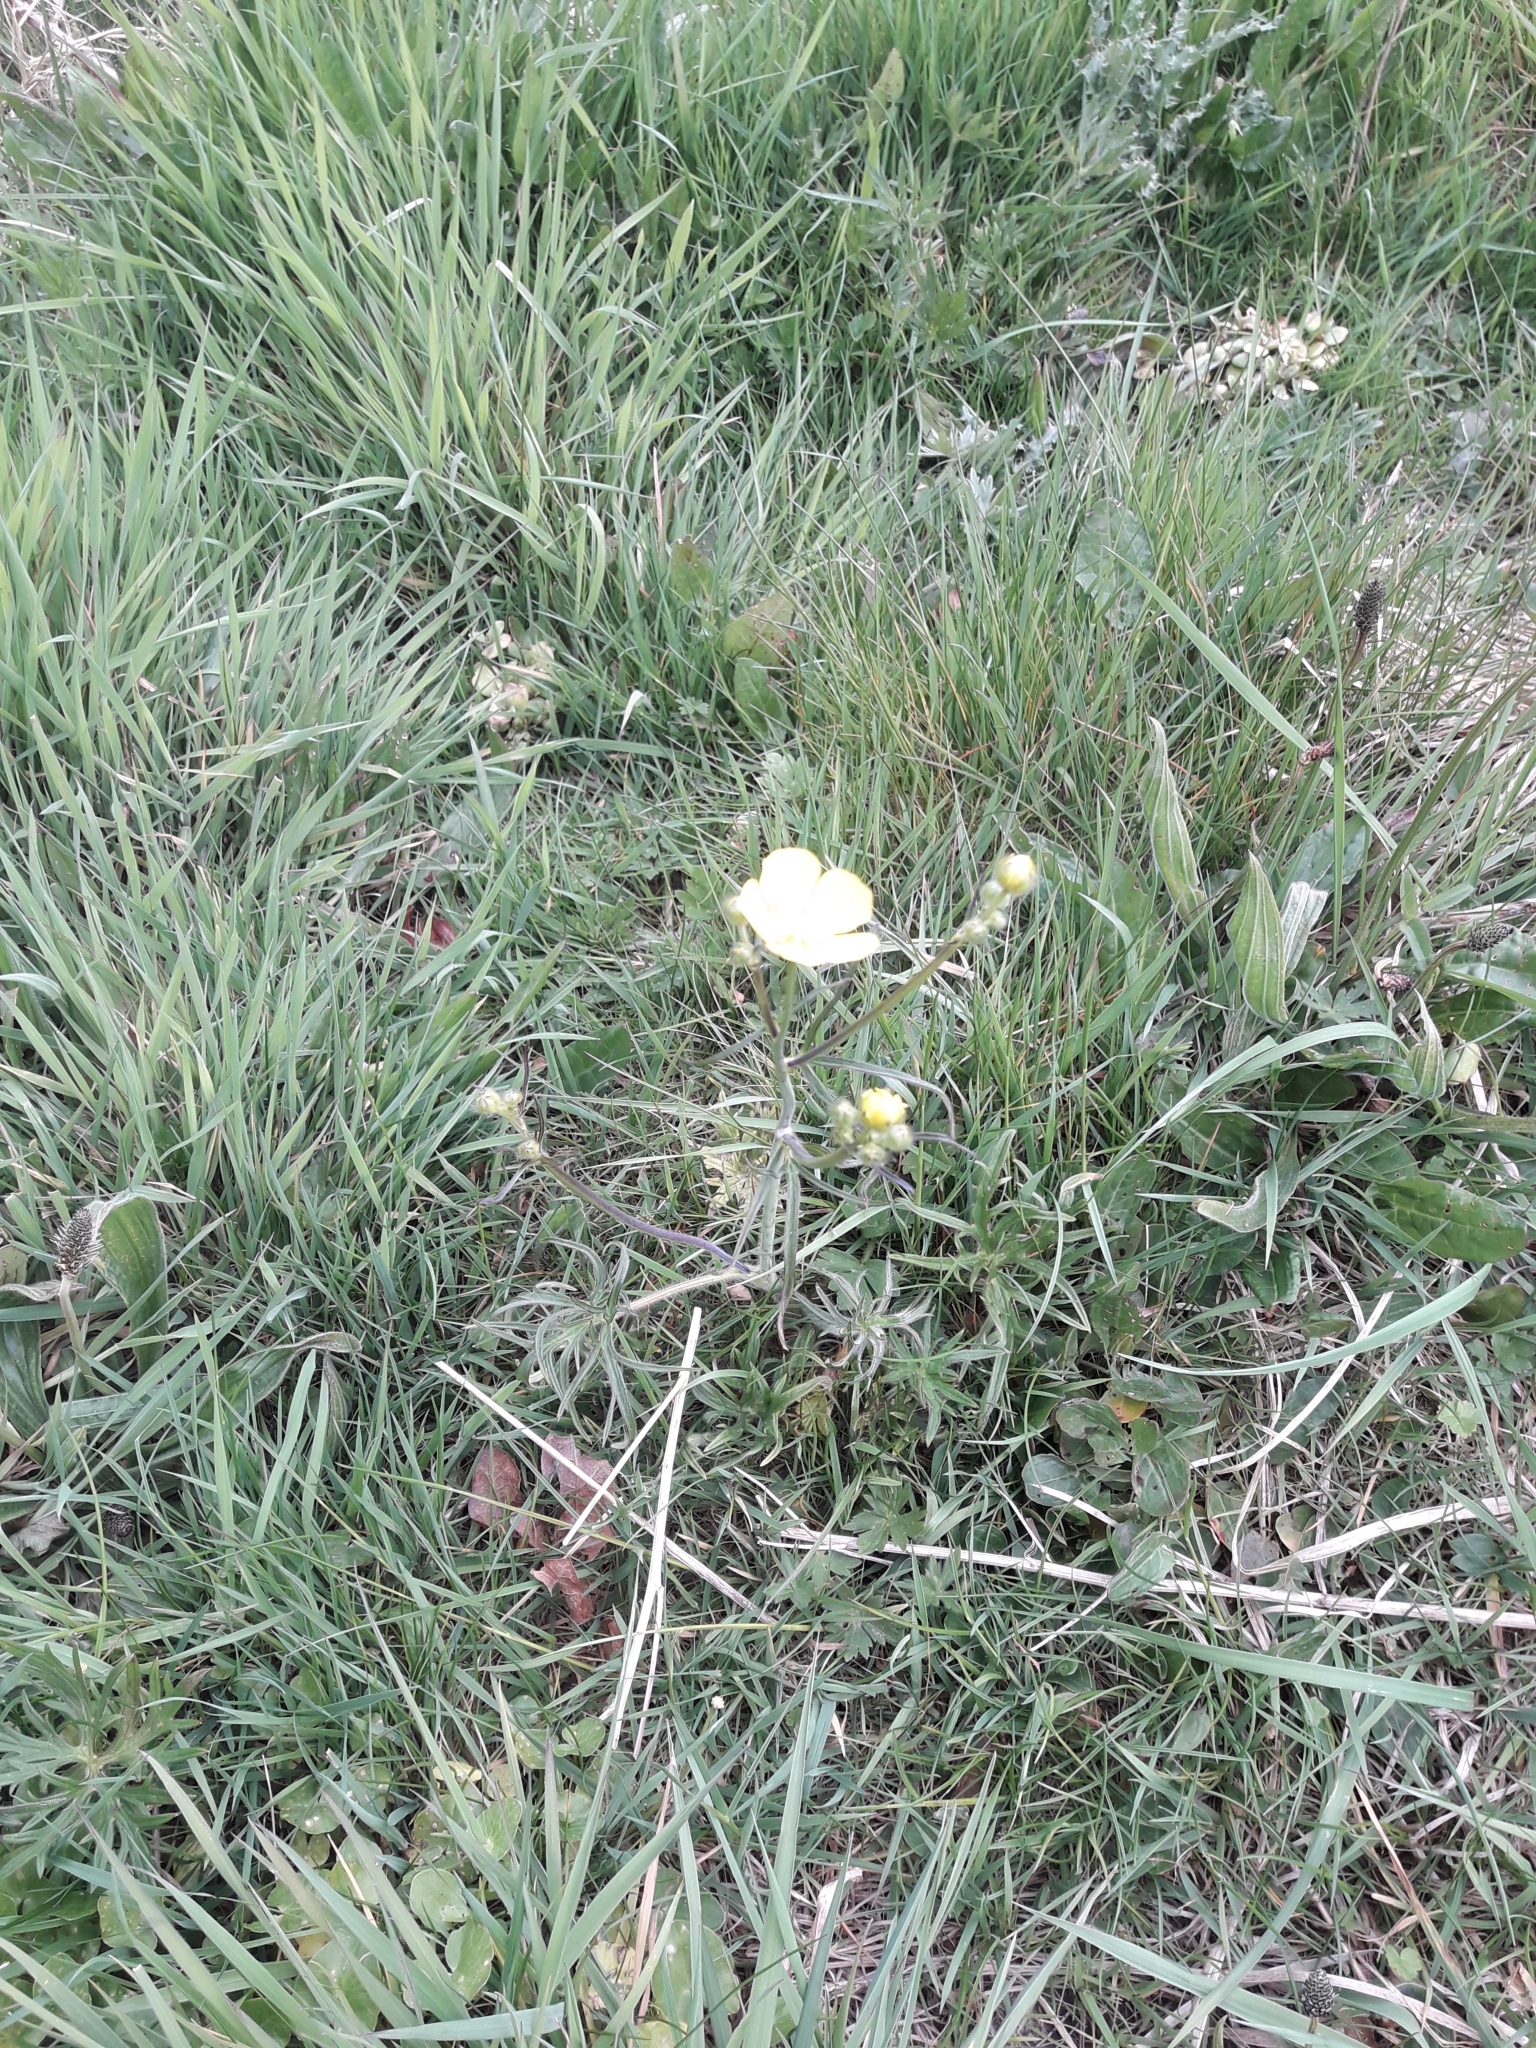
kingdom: Plantae
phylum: Tracheophyta
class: Magnoliopsida
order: Ranunculales
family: Ranunculaceae
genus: Ranunculus
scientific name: Ranunculus acris
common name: Meadow buttercup
